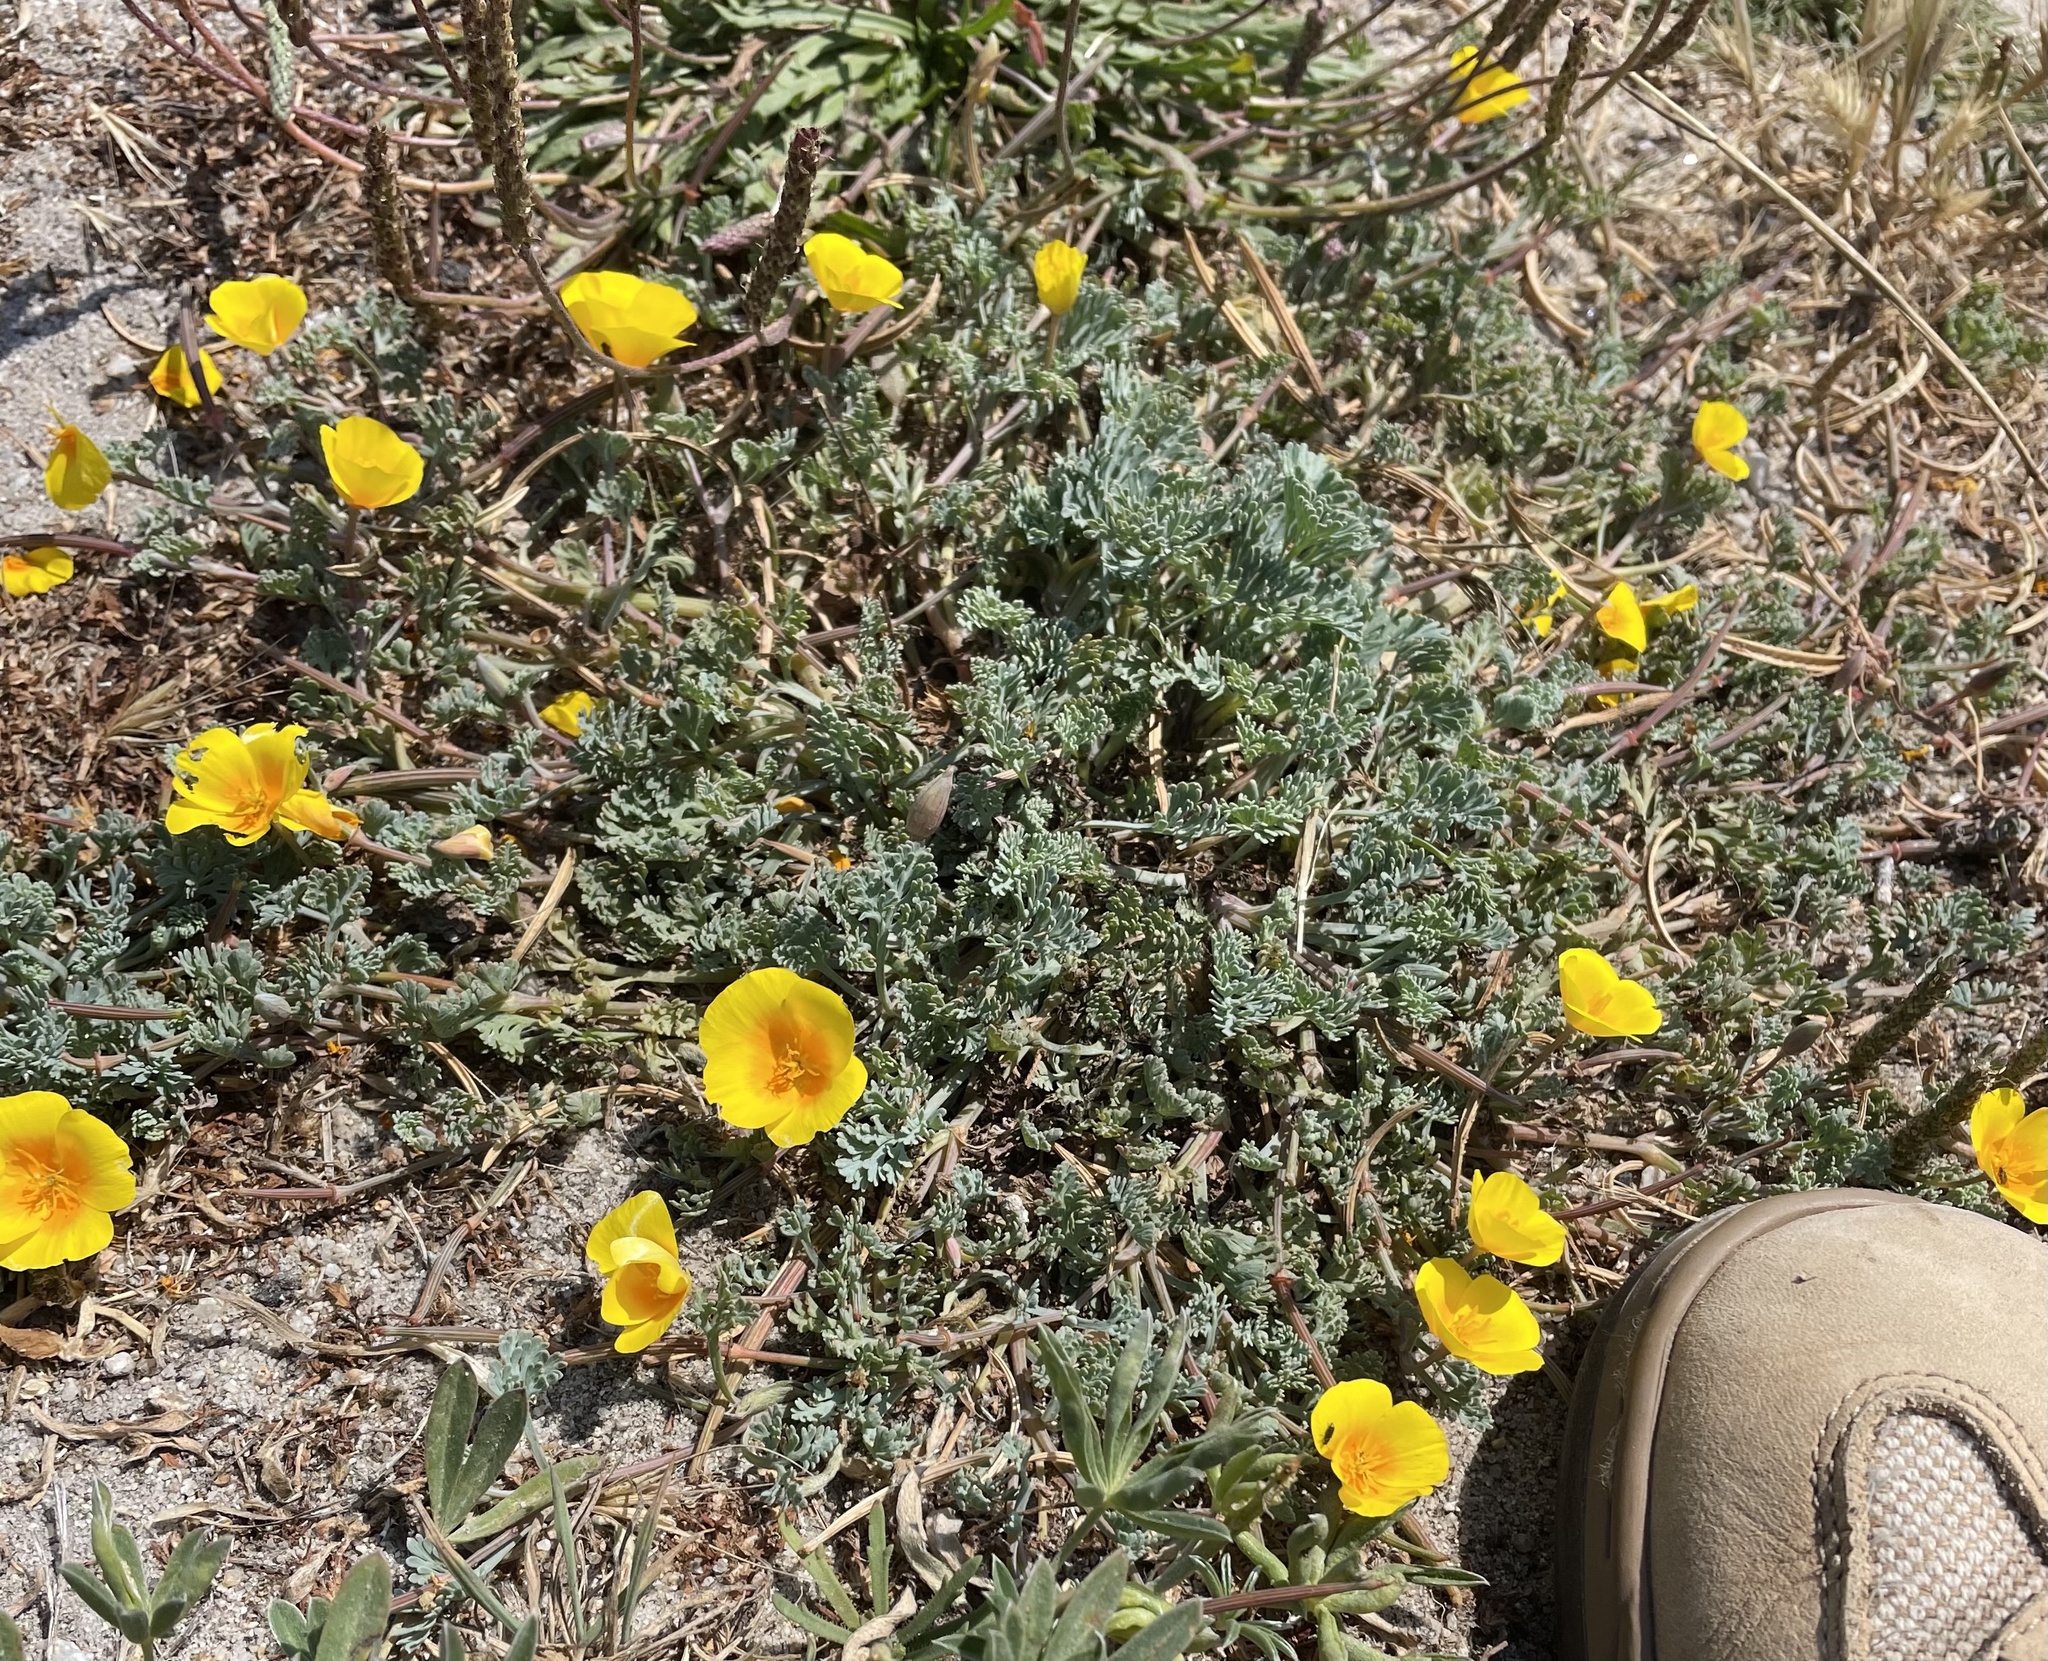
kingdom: Plantae
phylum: Tracheophyta
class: Magnoliopsida
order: Ranunculales
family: Papaveraceae
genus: Eschscholzia
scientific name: Eschscholzia californica
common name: California poppy
